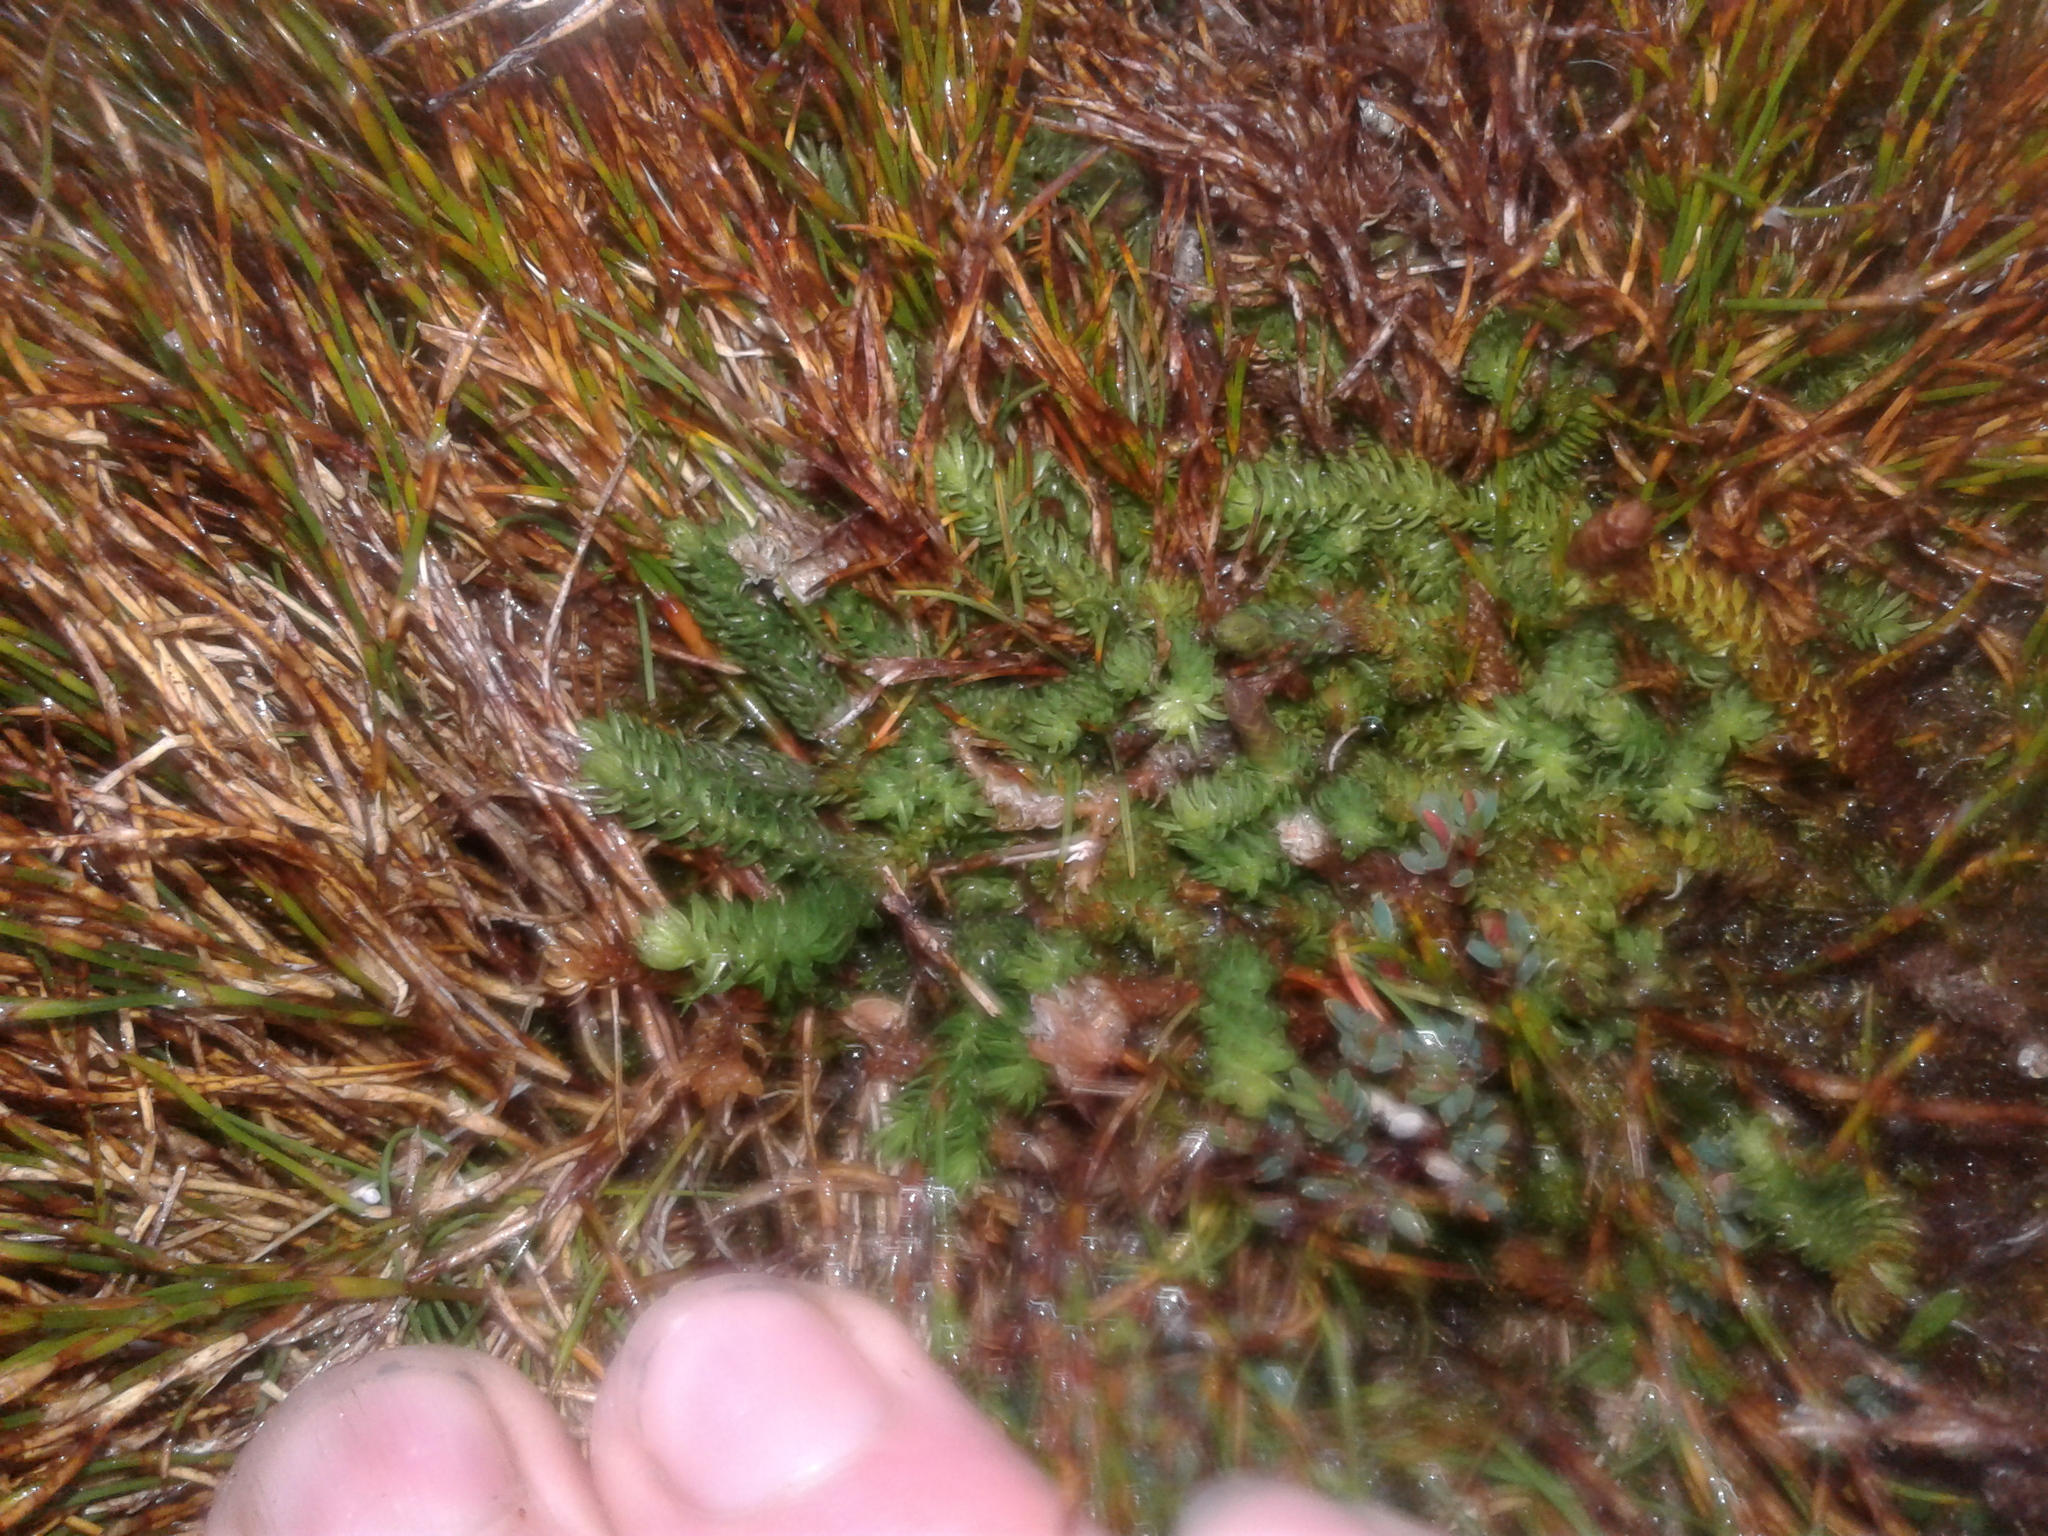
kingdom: Plantae
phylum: Tracheophyta
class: Lycopodiopsida
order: Lycopodiales
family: Lycopodiaceae
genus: Lateristachys
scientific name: Lateristachys diffusa
